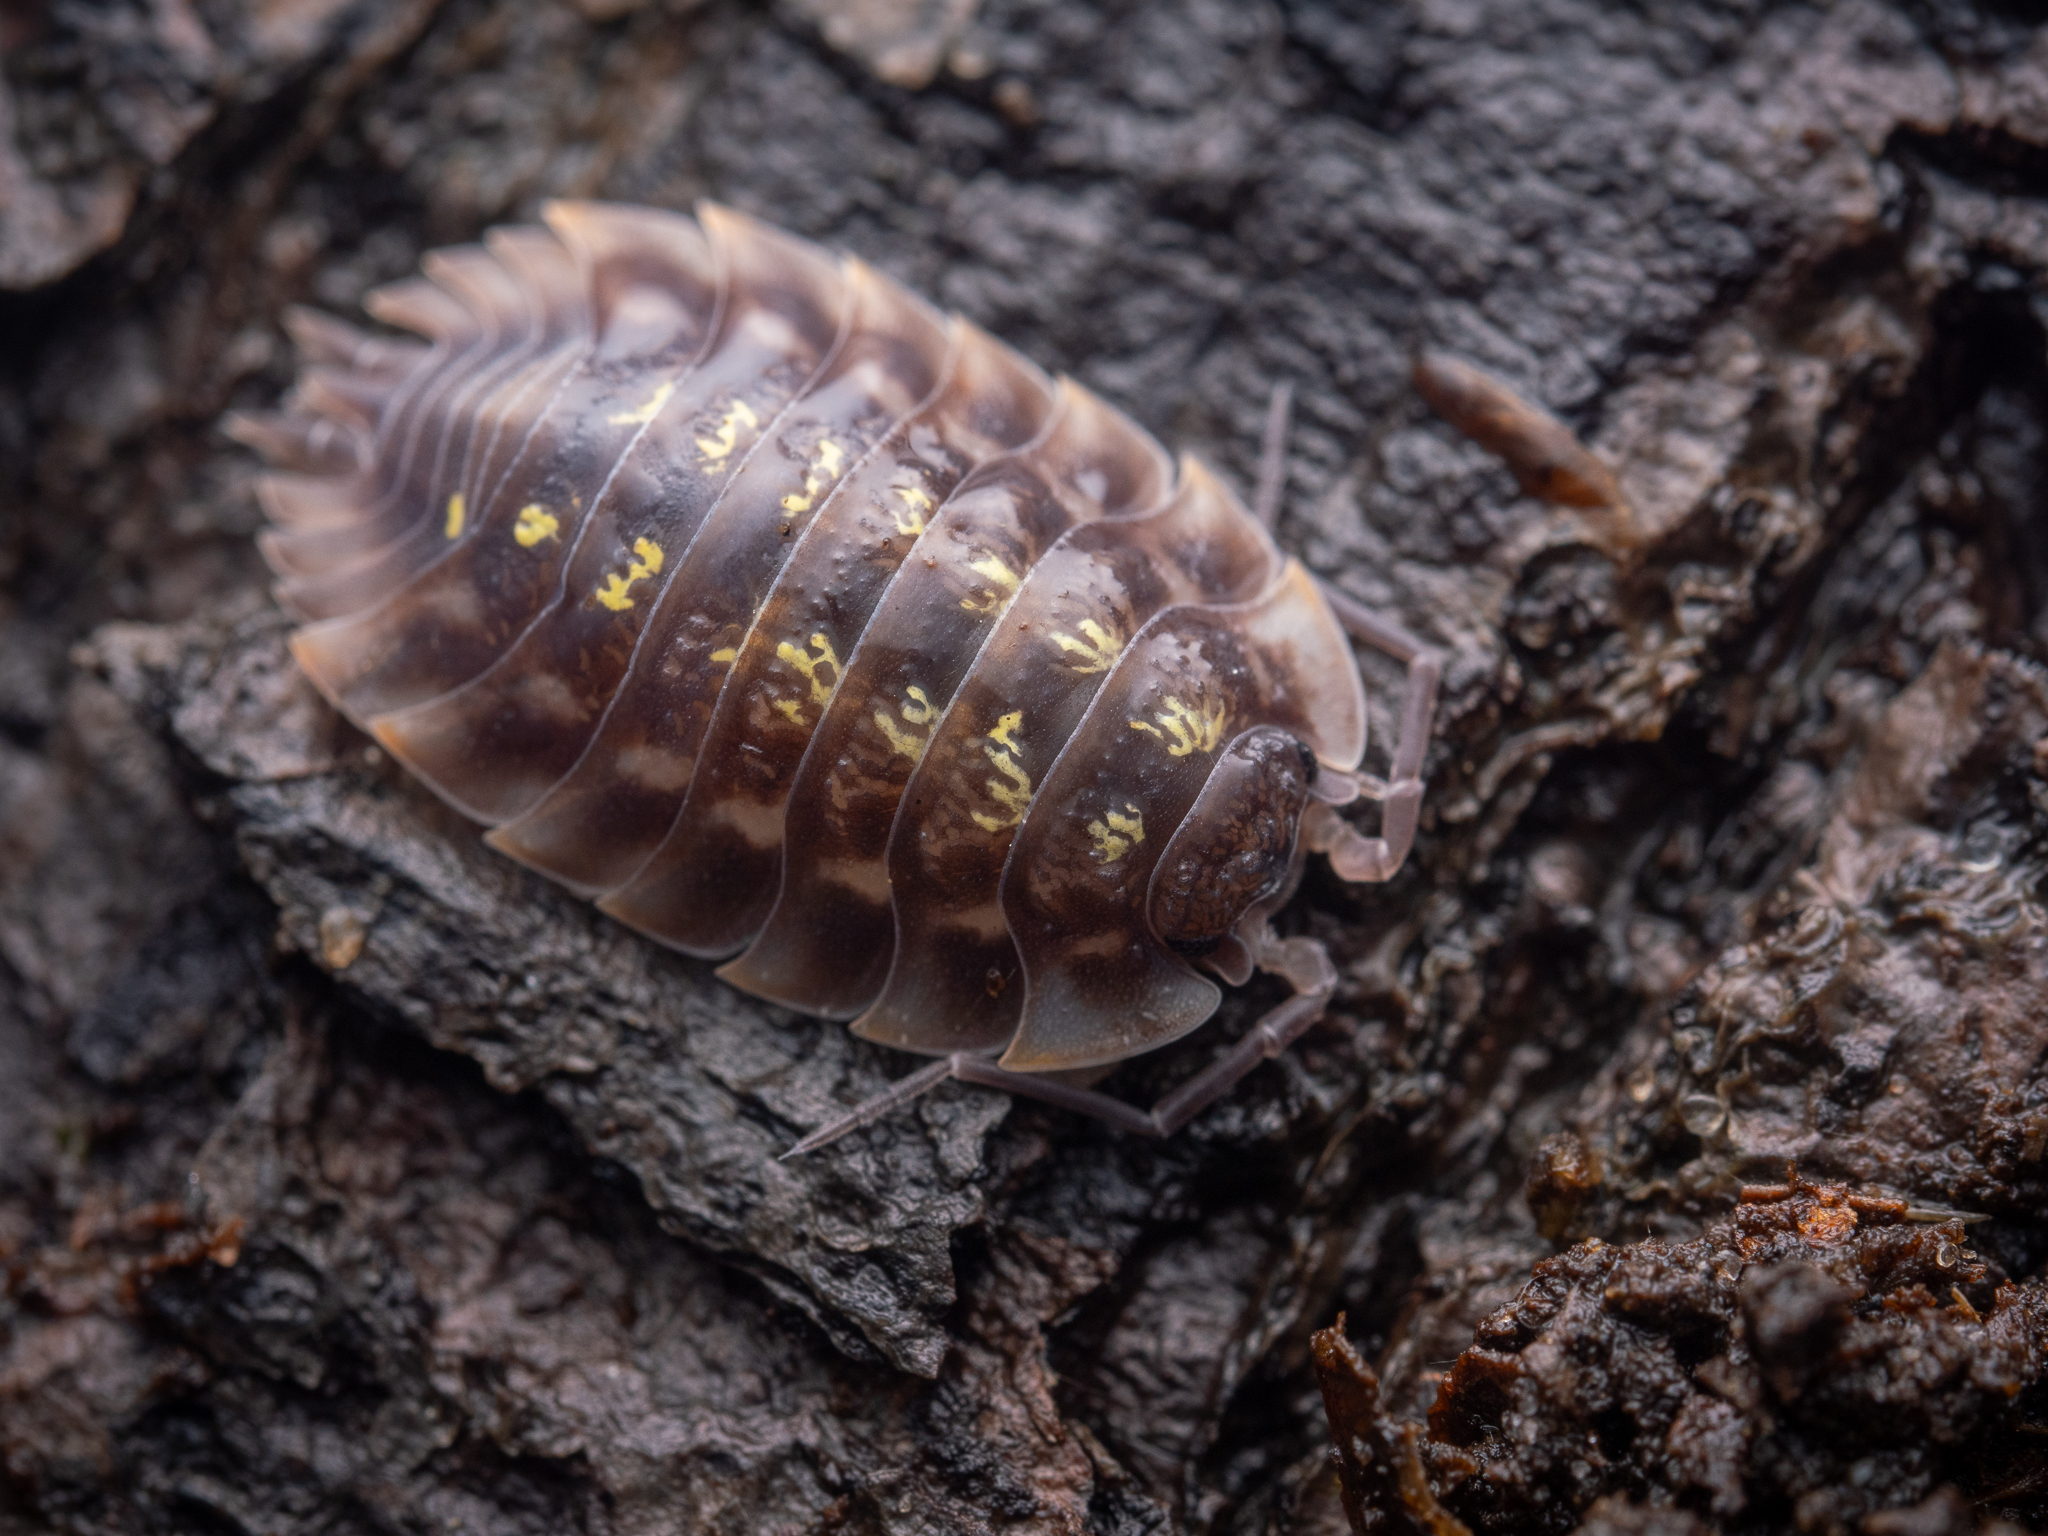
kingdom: Animalia
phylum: Arthropoda
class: Malacostraca
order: Isopoda
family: Oniscidae
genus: Oniscus
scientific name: Oniscus asellus
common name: Common shiny woodlouse
